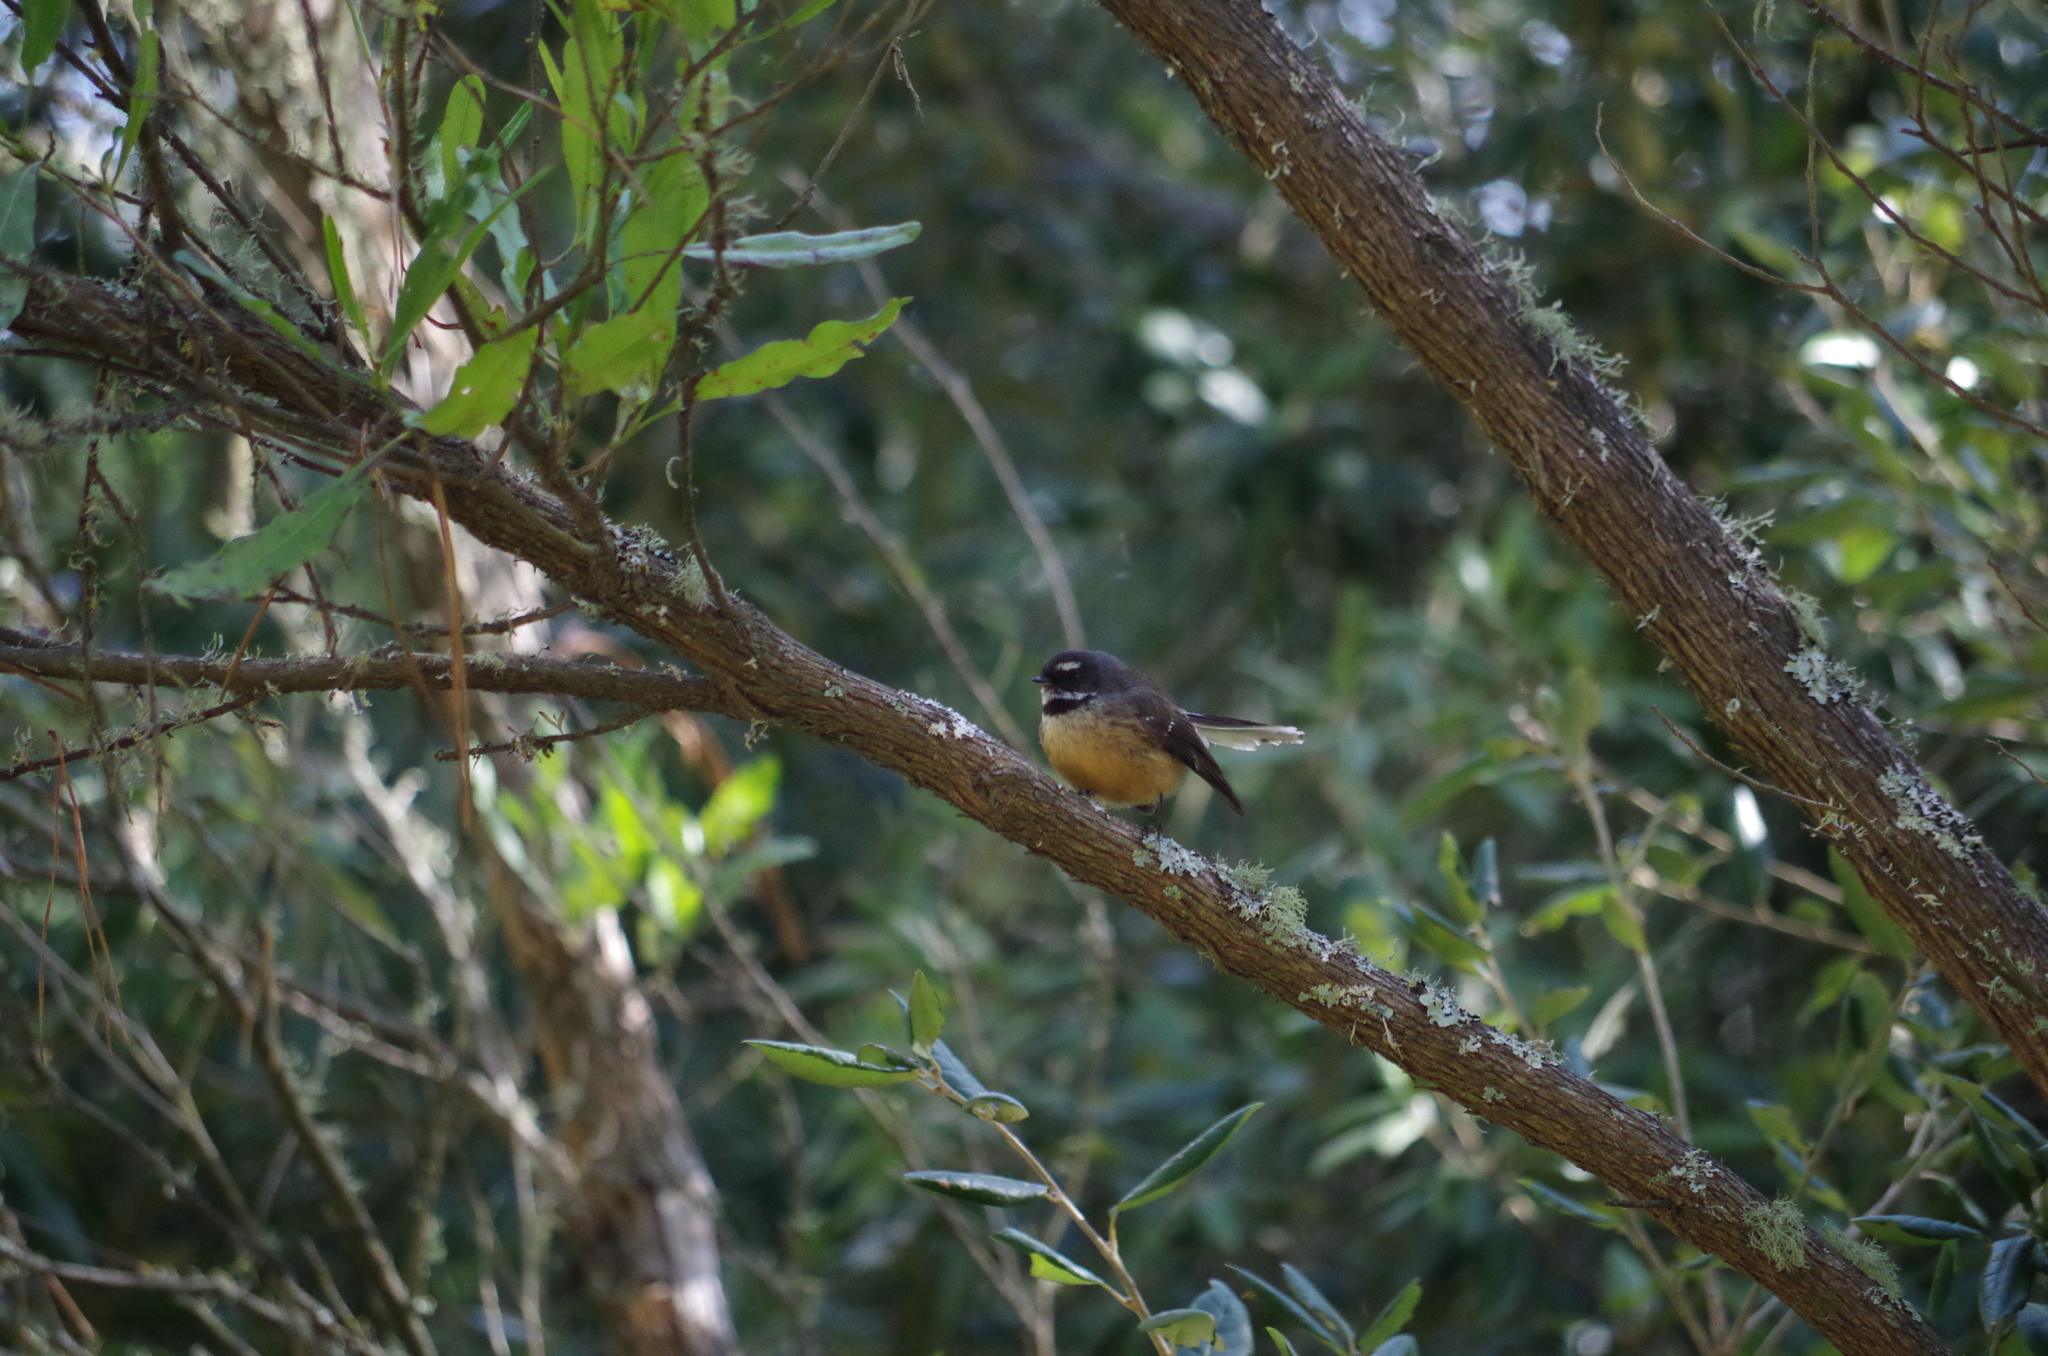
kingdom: Animalia
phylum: Chordata
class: Aves
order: Passeriformes
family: Rhipiduridae
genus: Rhipidura
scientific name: Rhipidura fuliginosa
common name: New zealand fantail
